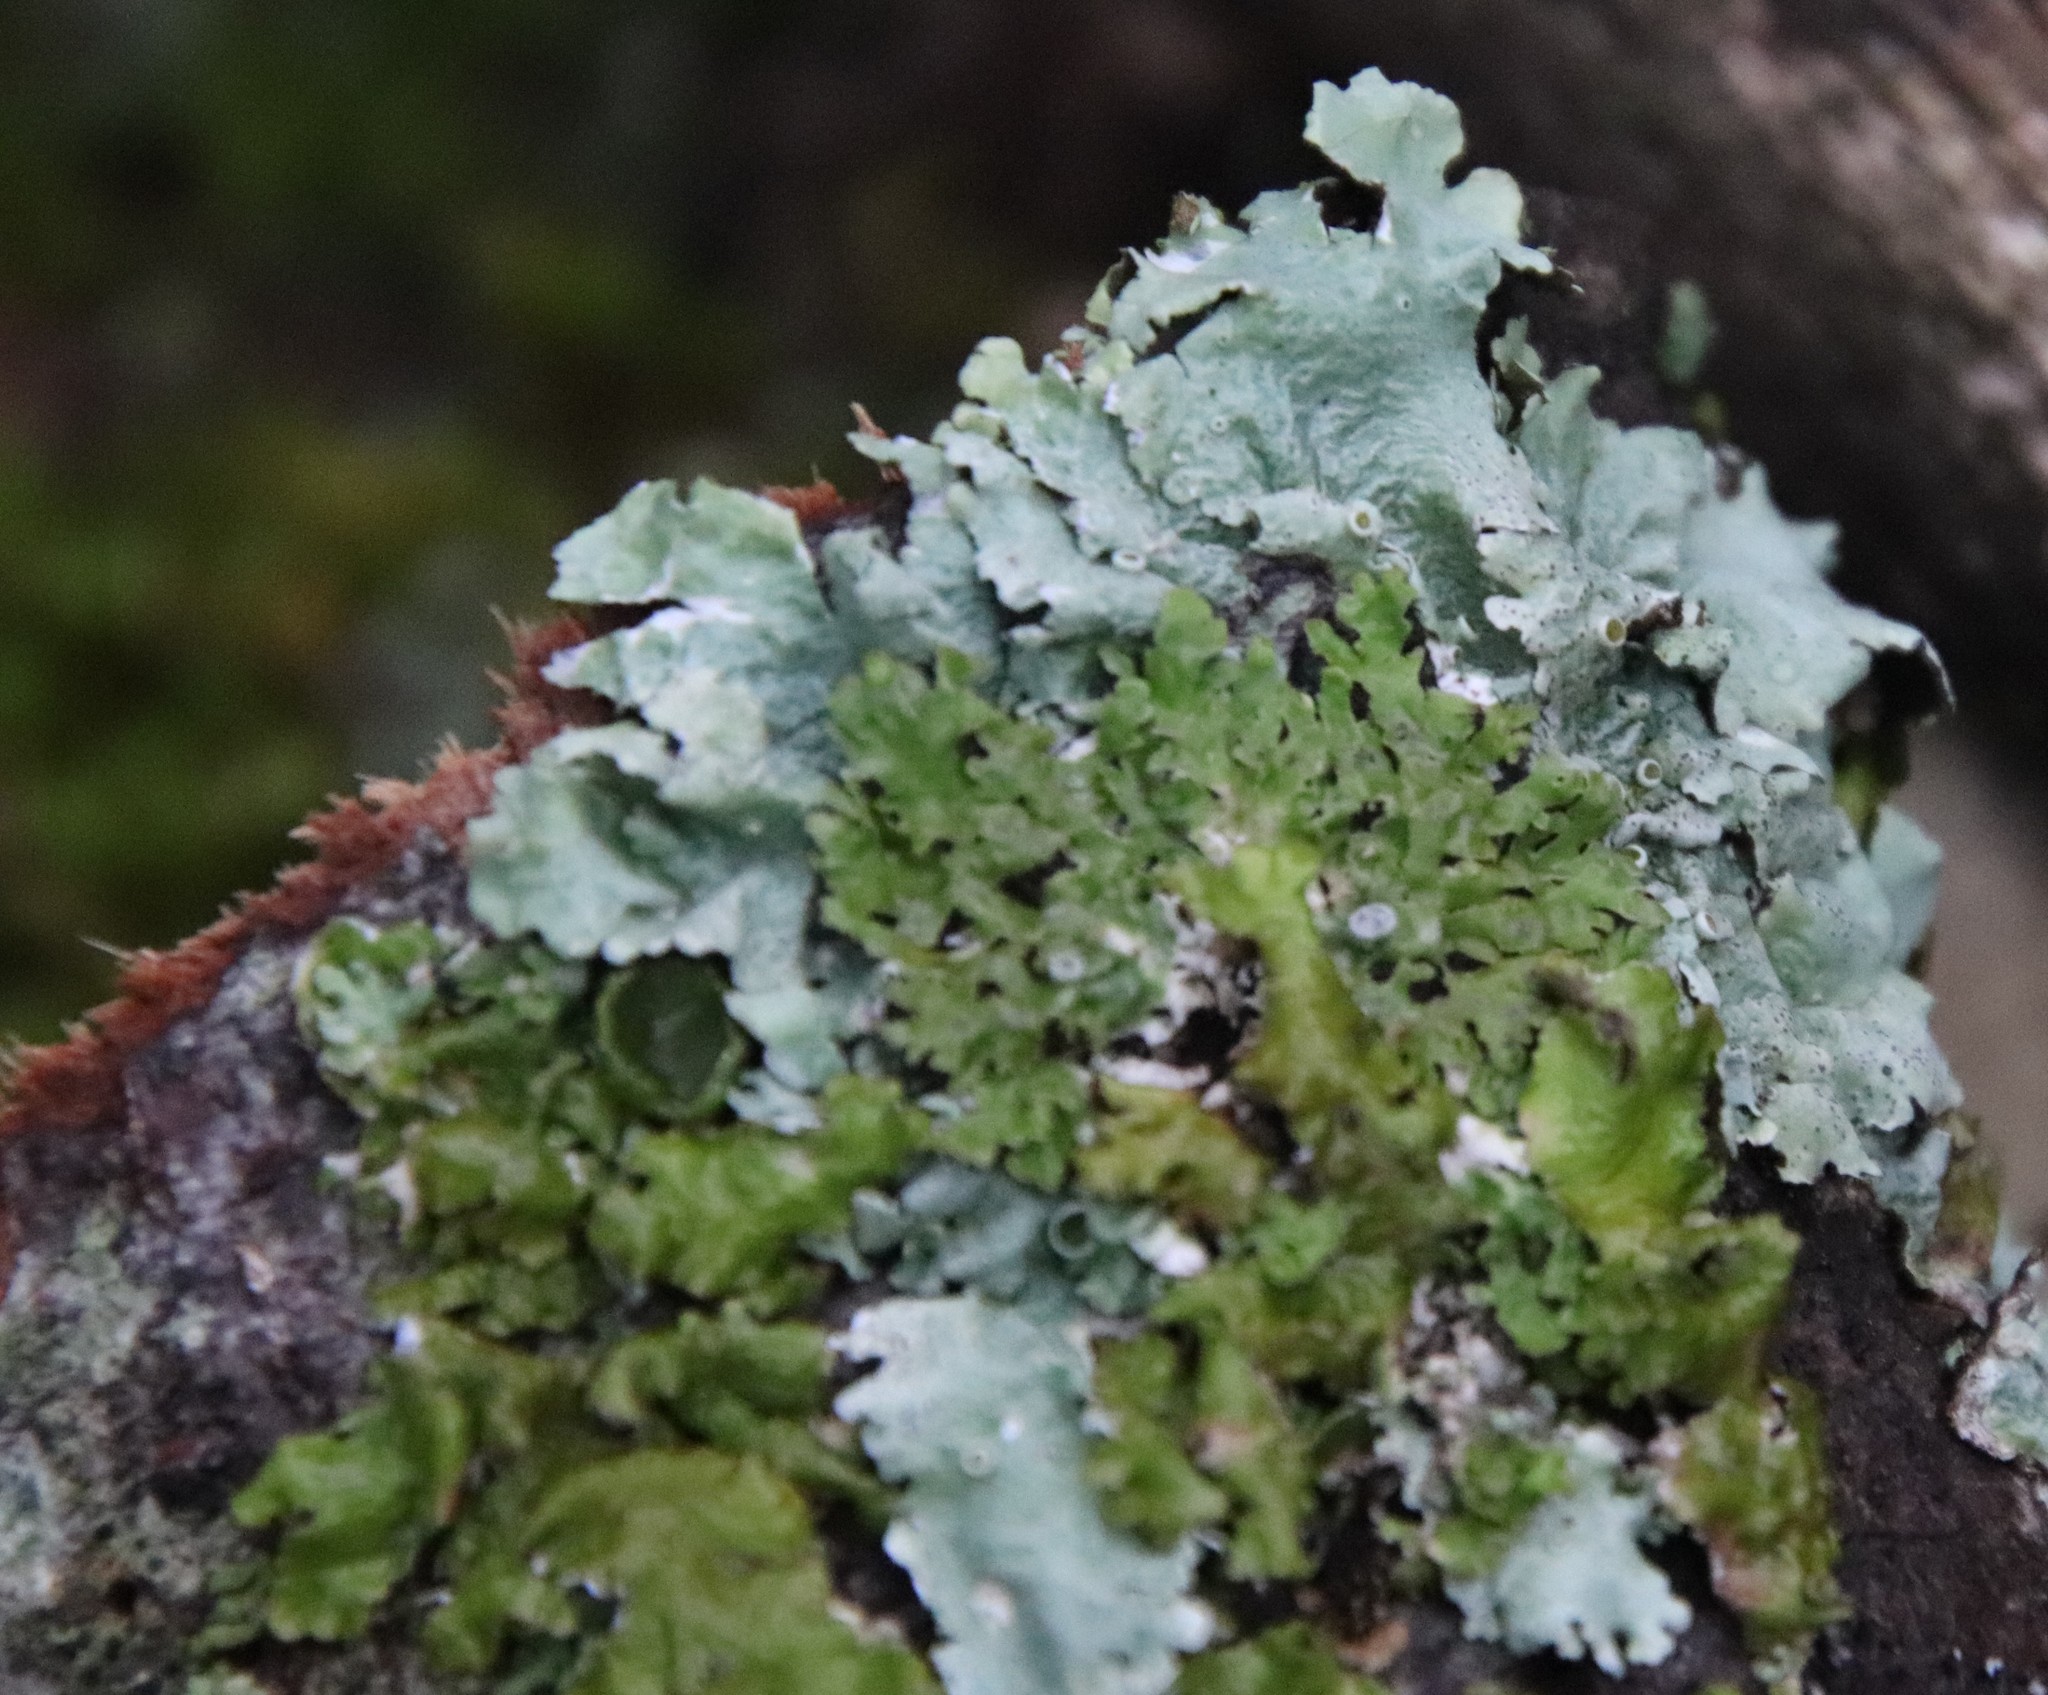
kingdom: Fungi
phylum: Ascomycota
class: Lecanoromycetes
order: Lecanorales
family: Parmeliaceae
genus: Melanelixia
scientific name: Melanelixia californica
